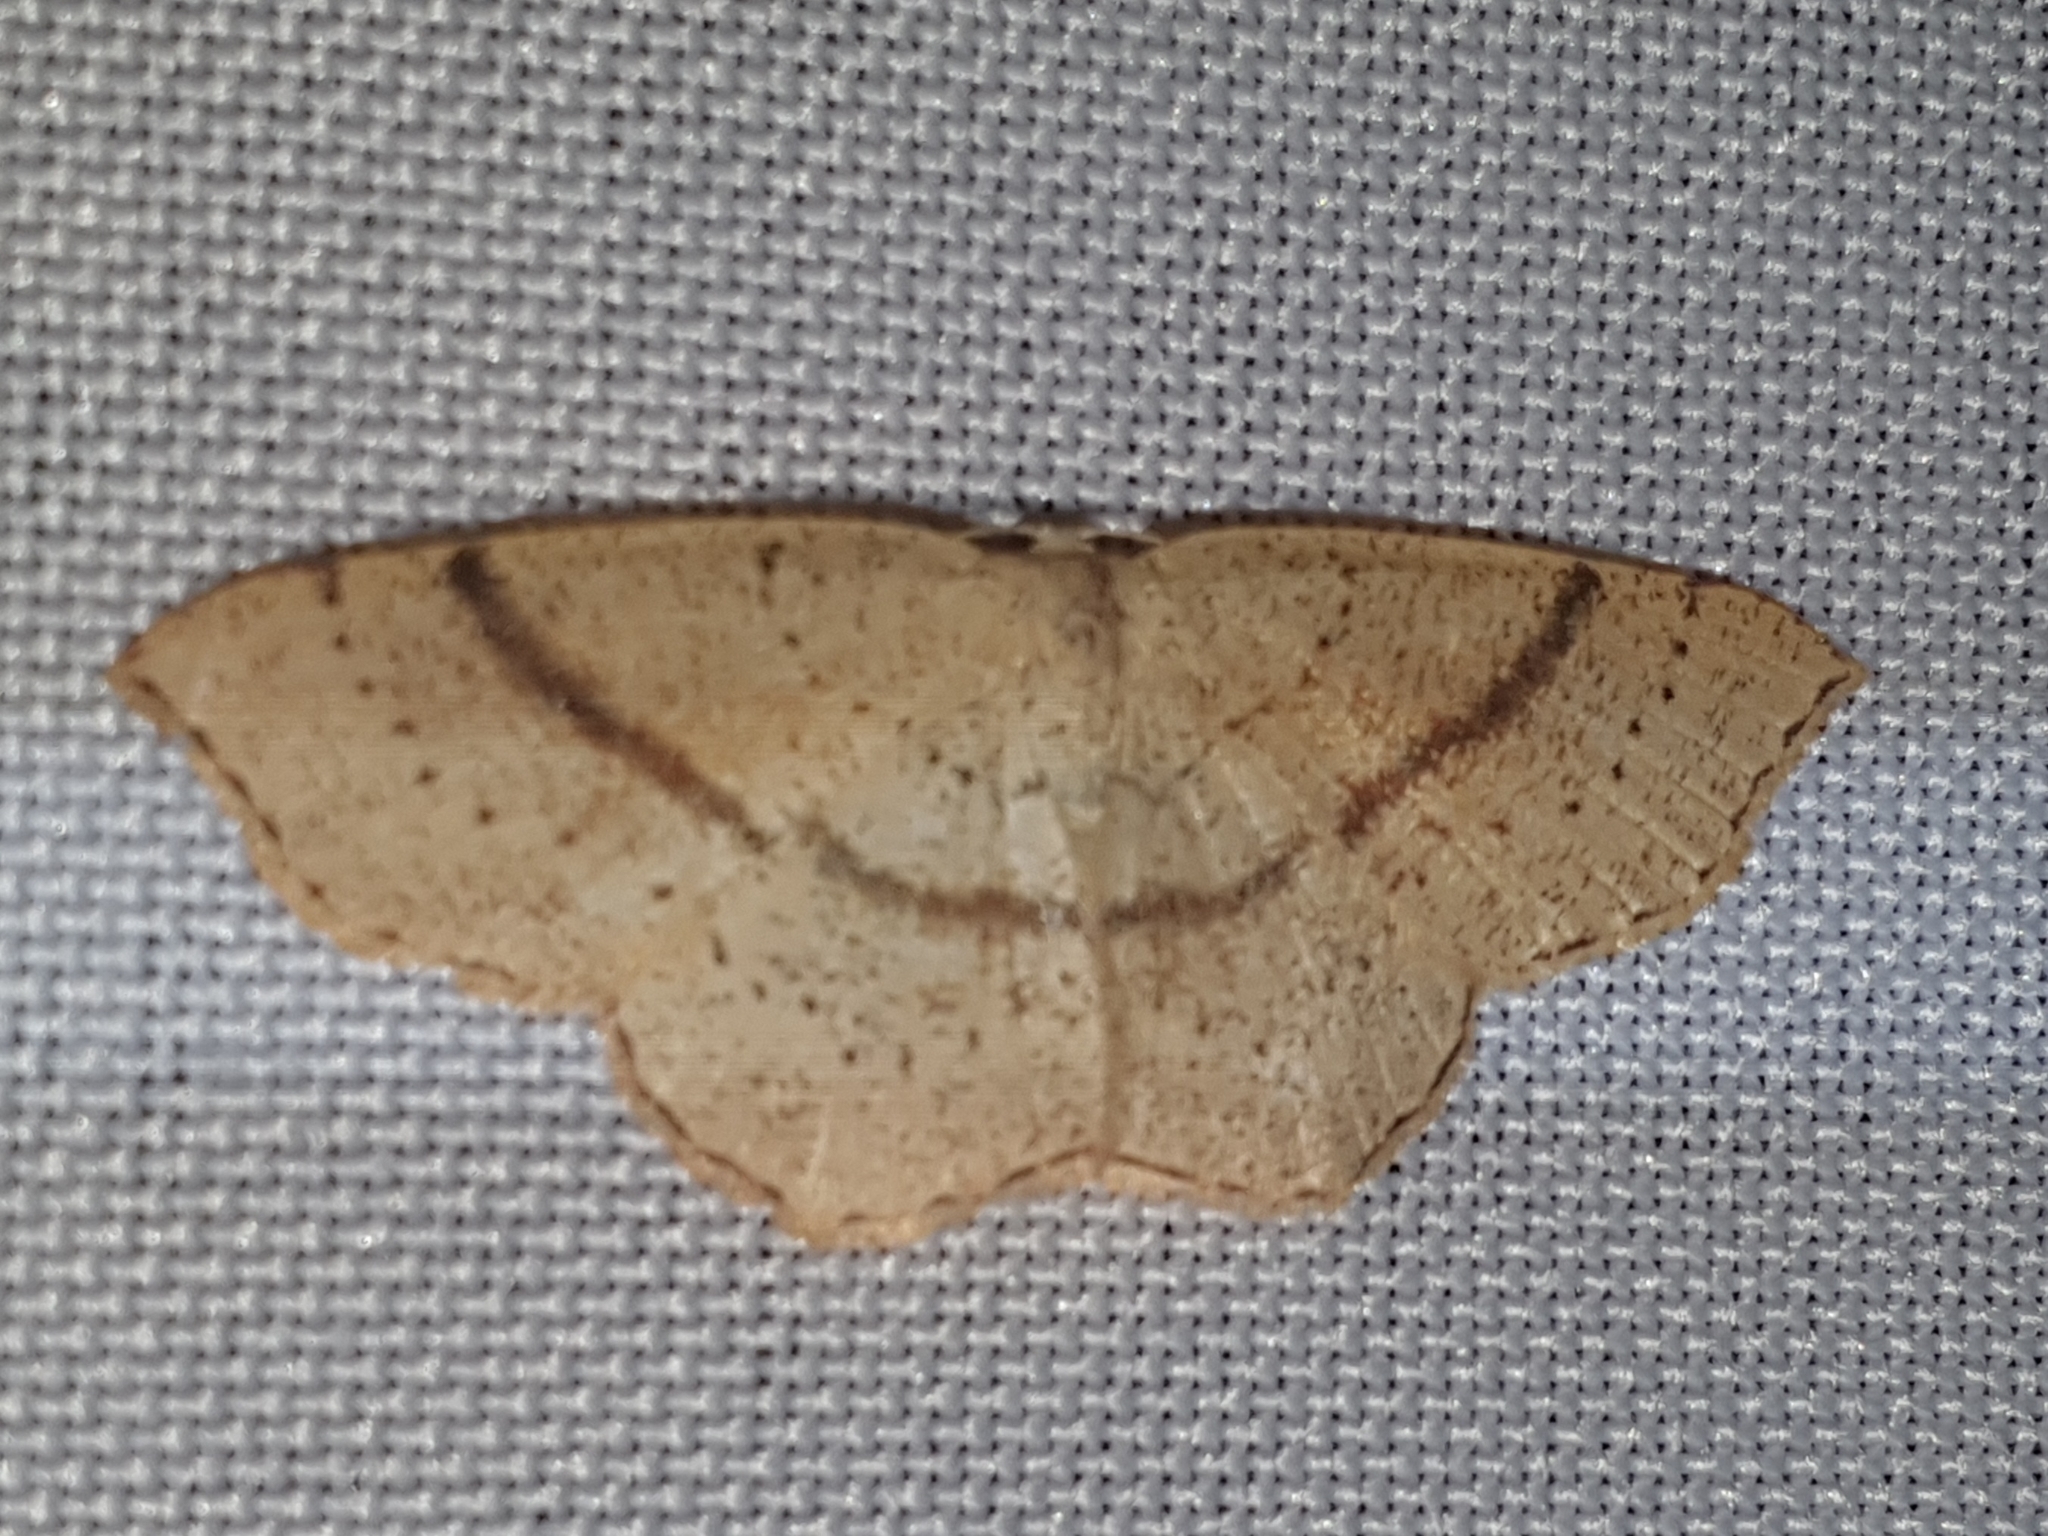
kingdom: Animalia
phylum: Arthropoda
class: Insecta
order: Lepidoptera
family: Geometridae
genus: Cyclophora
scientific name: Cyclophora punctaria
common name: Maiden's blush
